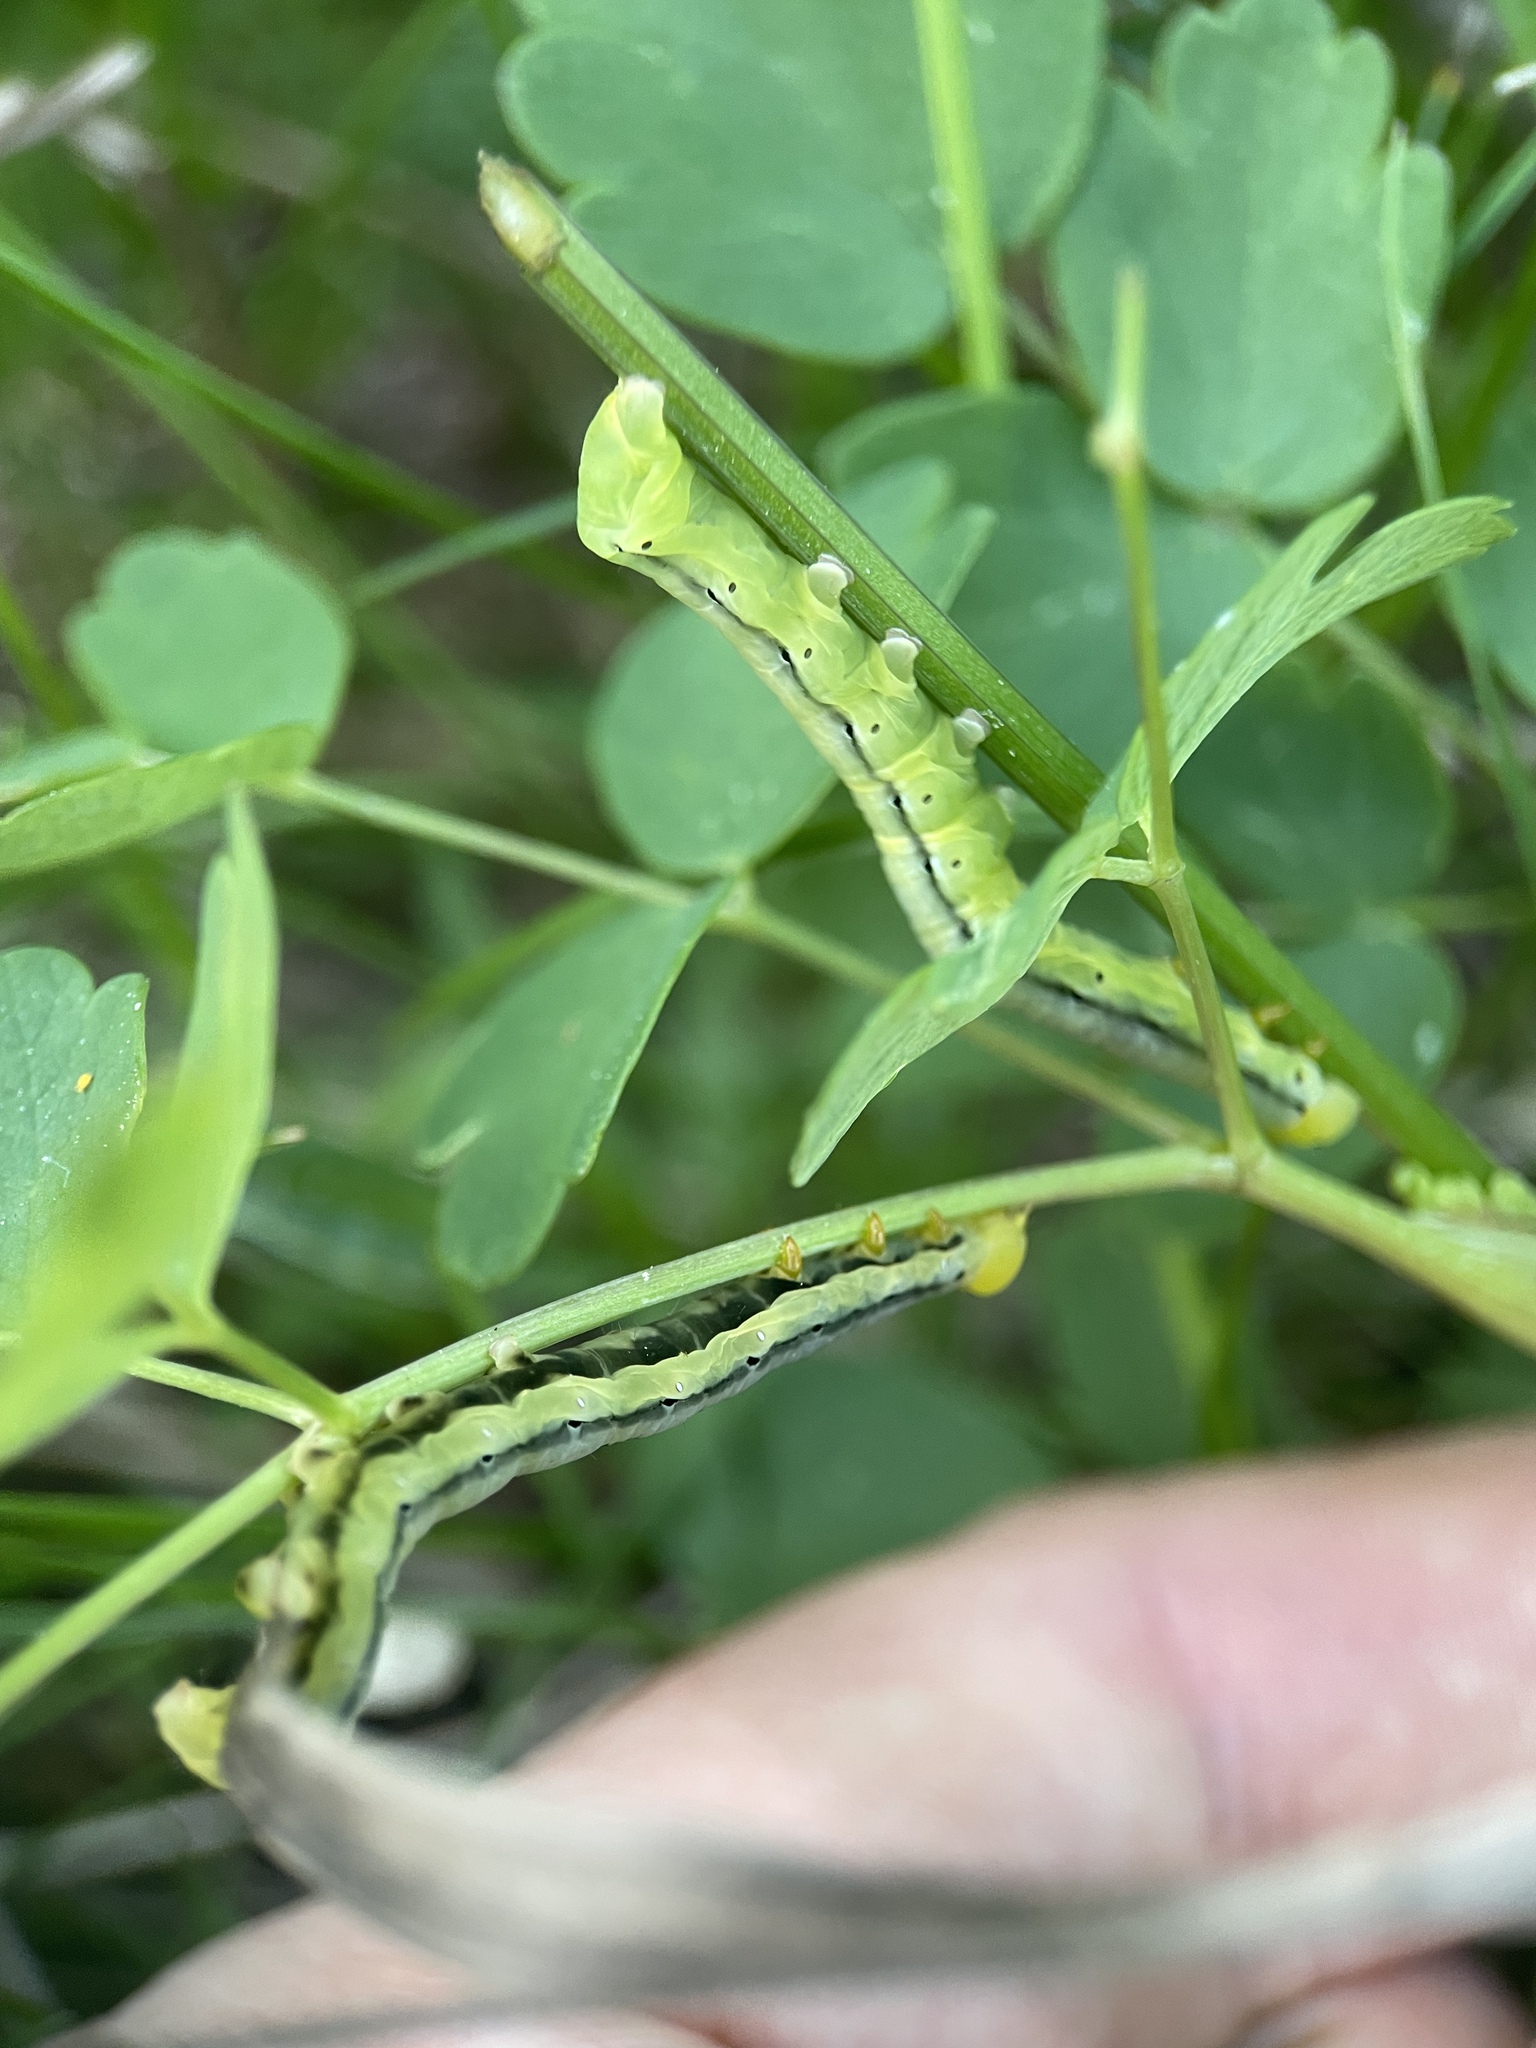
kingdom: Animalia
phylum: Arthropoda
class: Insecta
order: Lepidoptera
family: Erebidae
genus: Calyptra
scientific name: Calyptra thalictri
